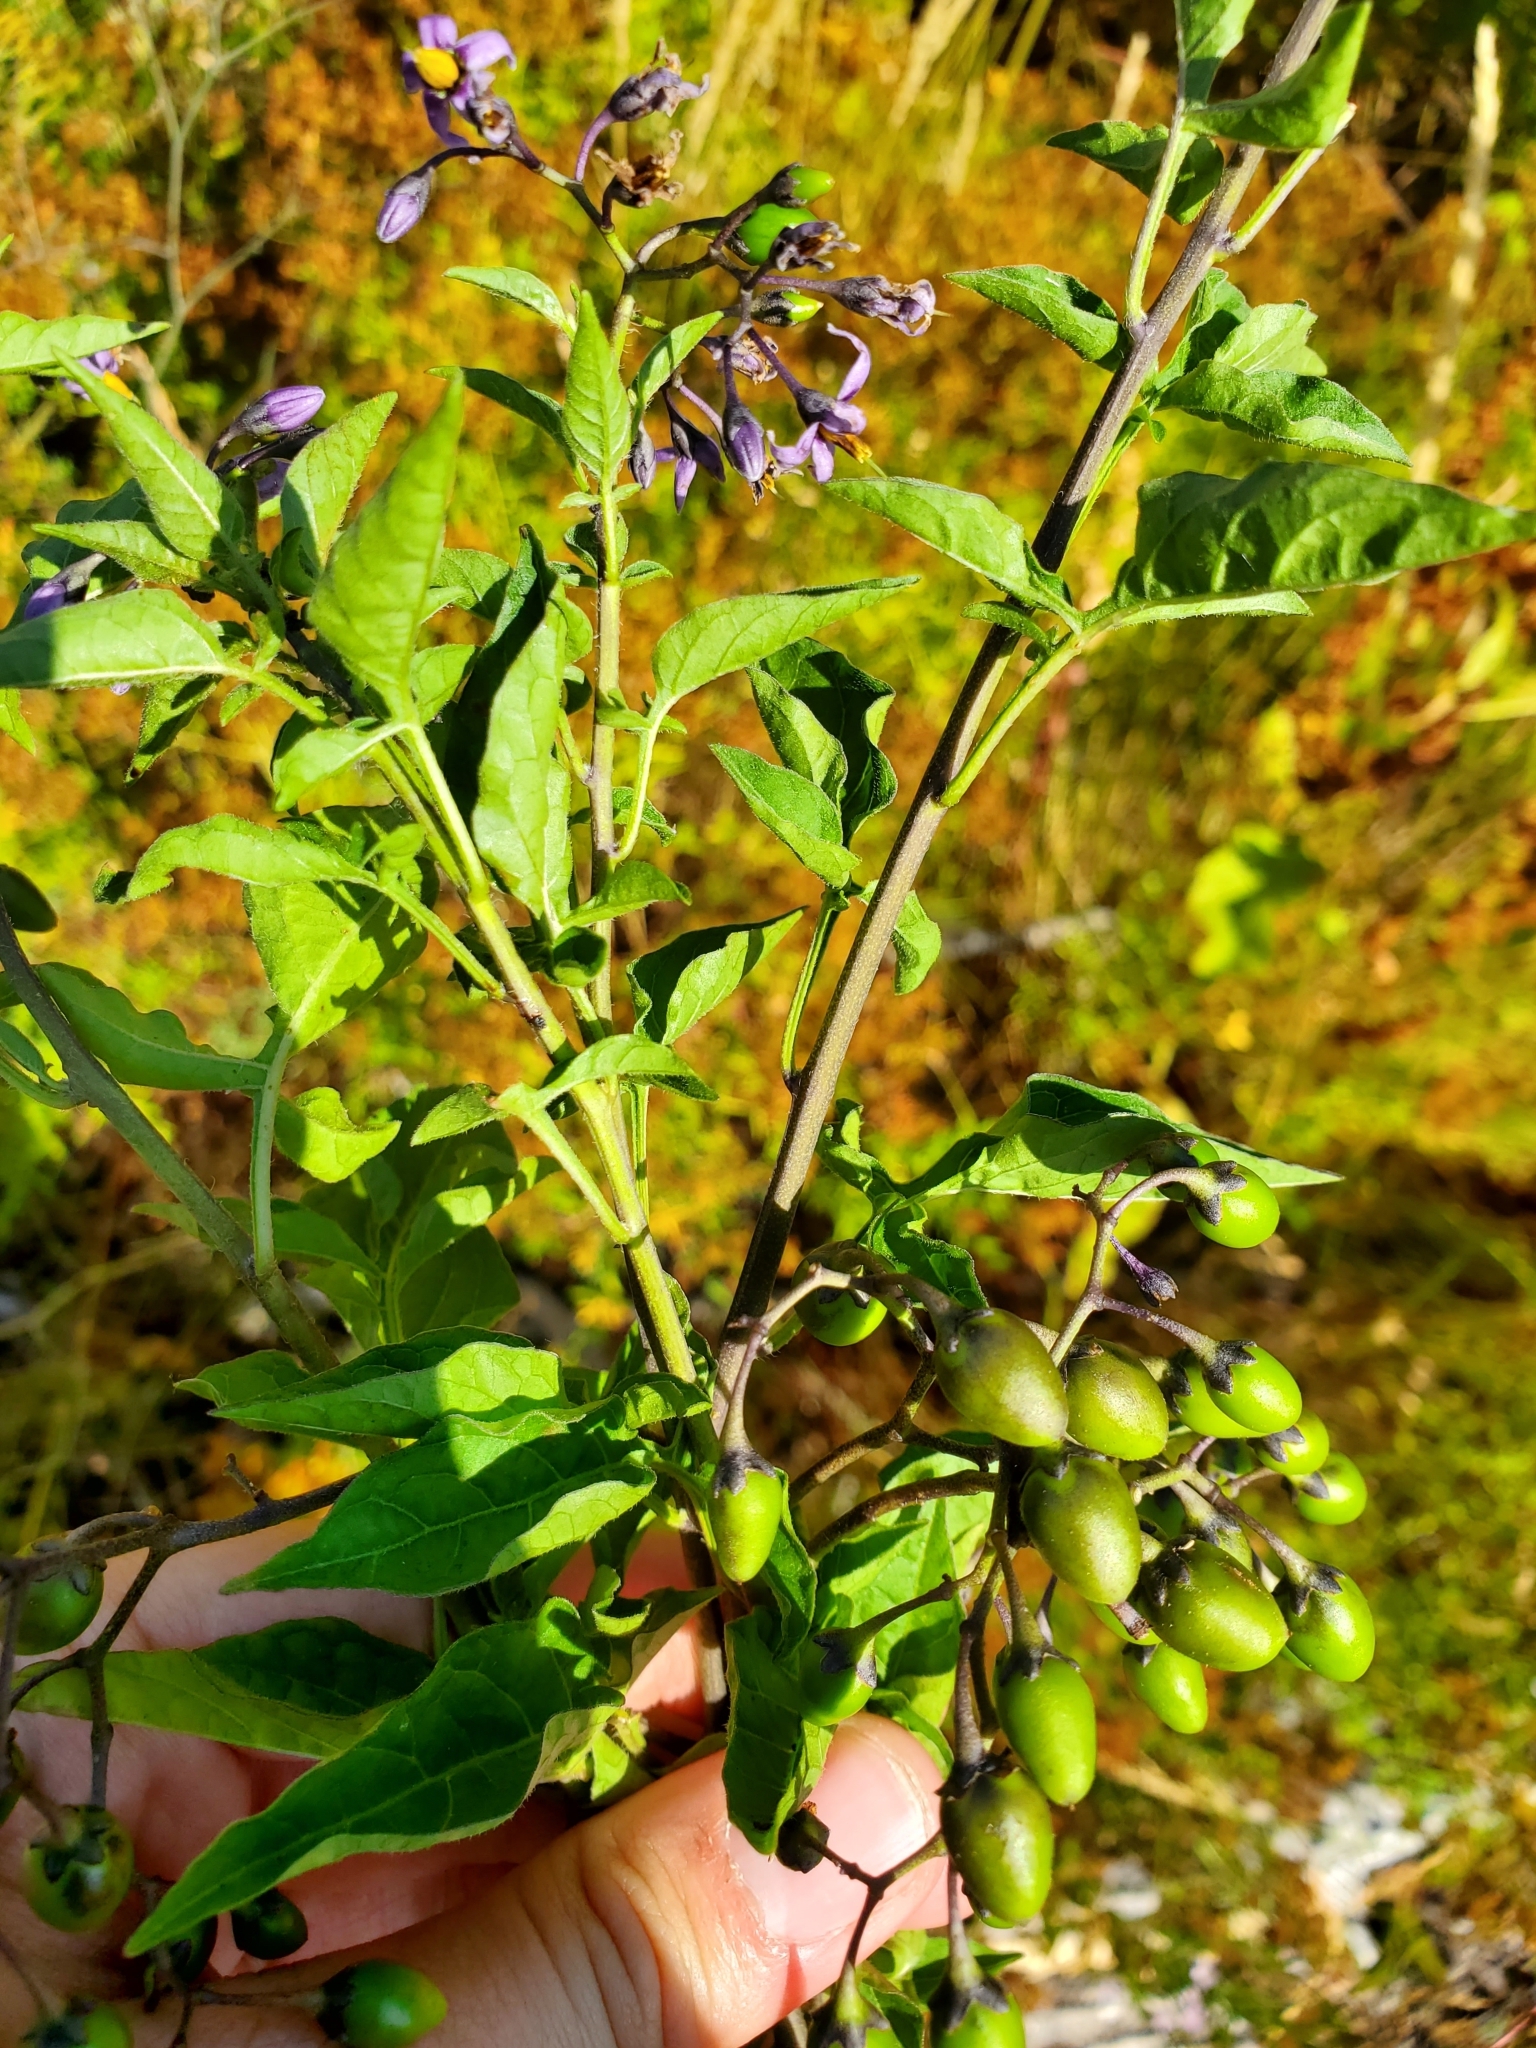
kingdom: Plantae
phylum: Tracheophyta
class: Magnoliopsida
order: Solanales
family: Solanaceae
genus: Solanum
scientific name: Solanum dulcamara
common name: Climbing nightshade
